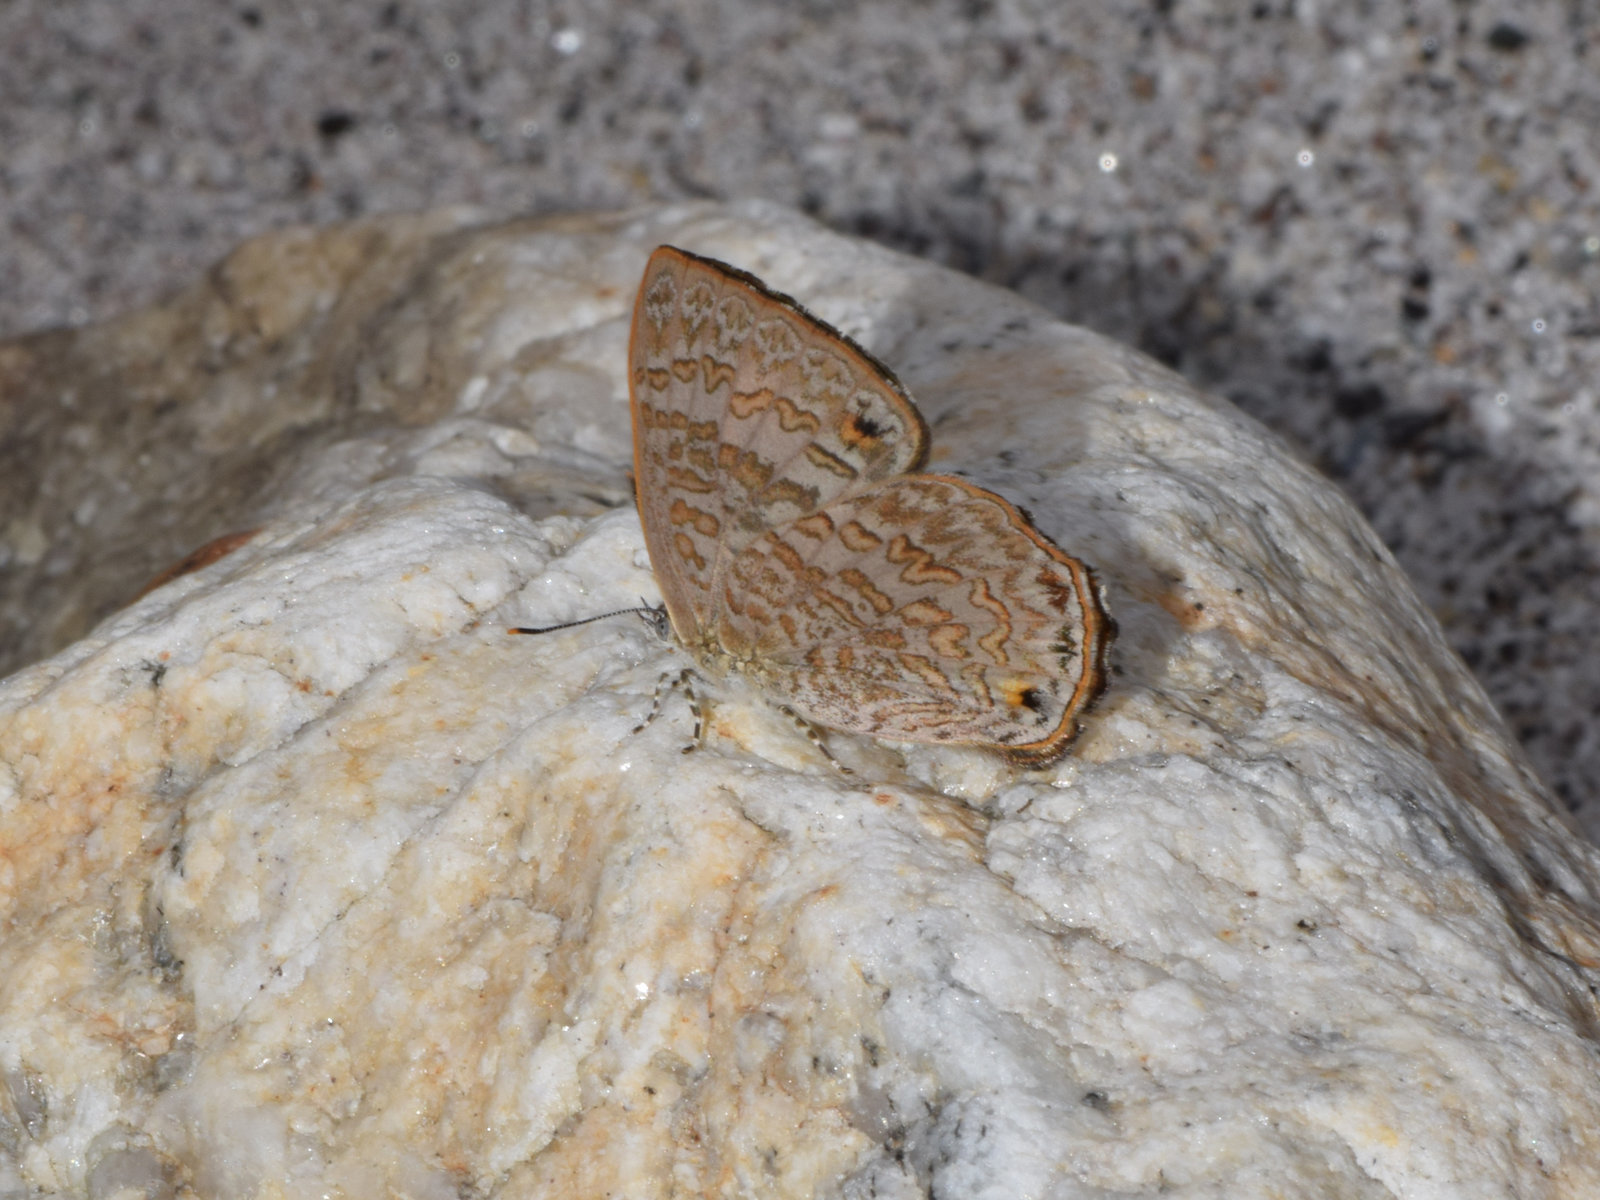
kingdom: Animalia
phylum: Arthropoda
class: Insecta
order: Lepidoptera
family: Lycaenidae
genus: Poritia
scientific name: Poritia hewitsoni
